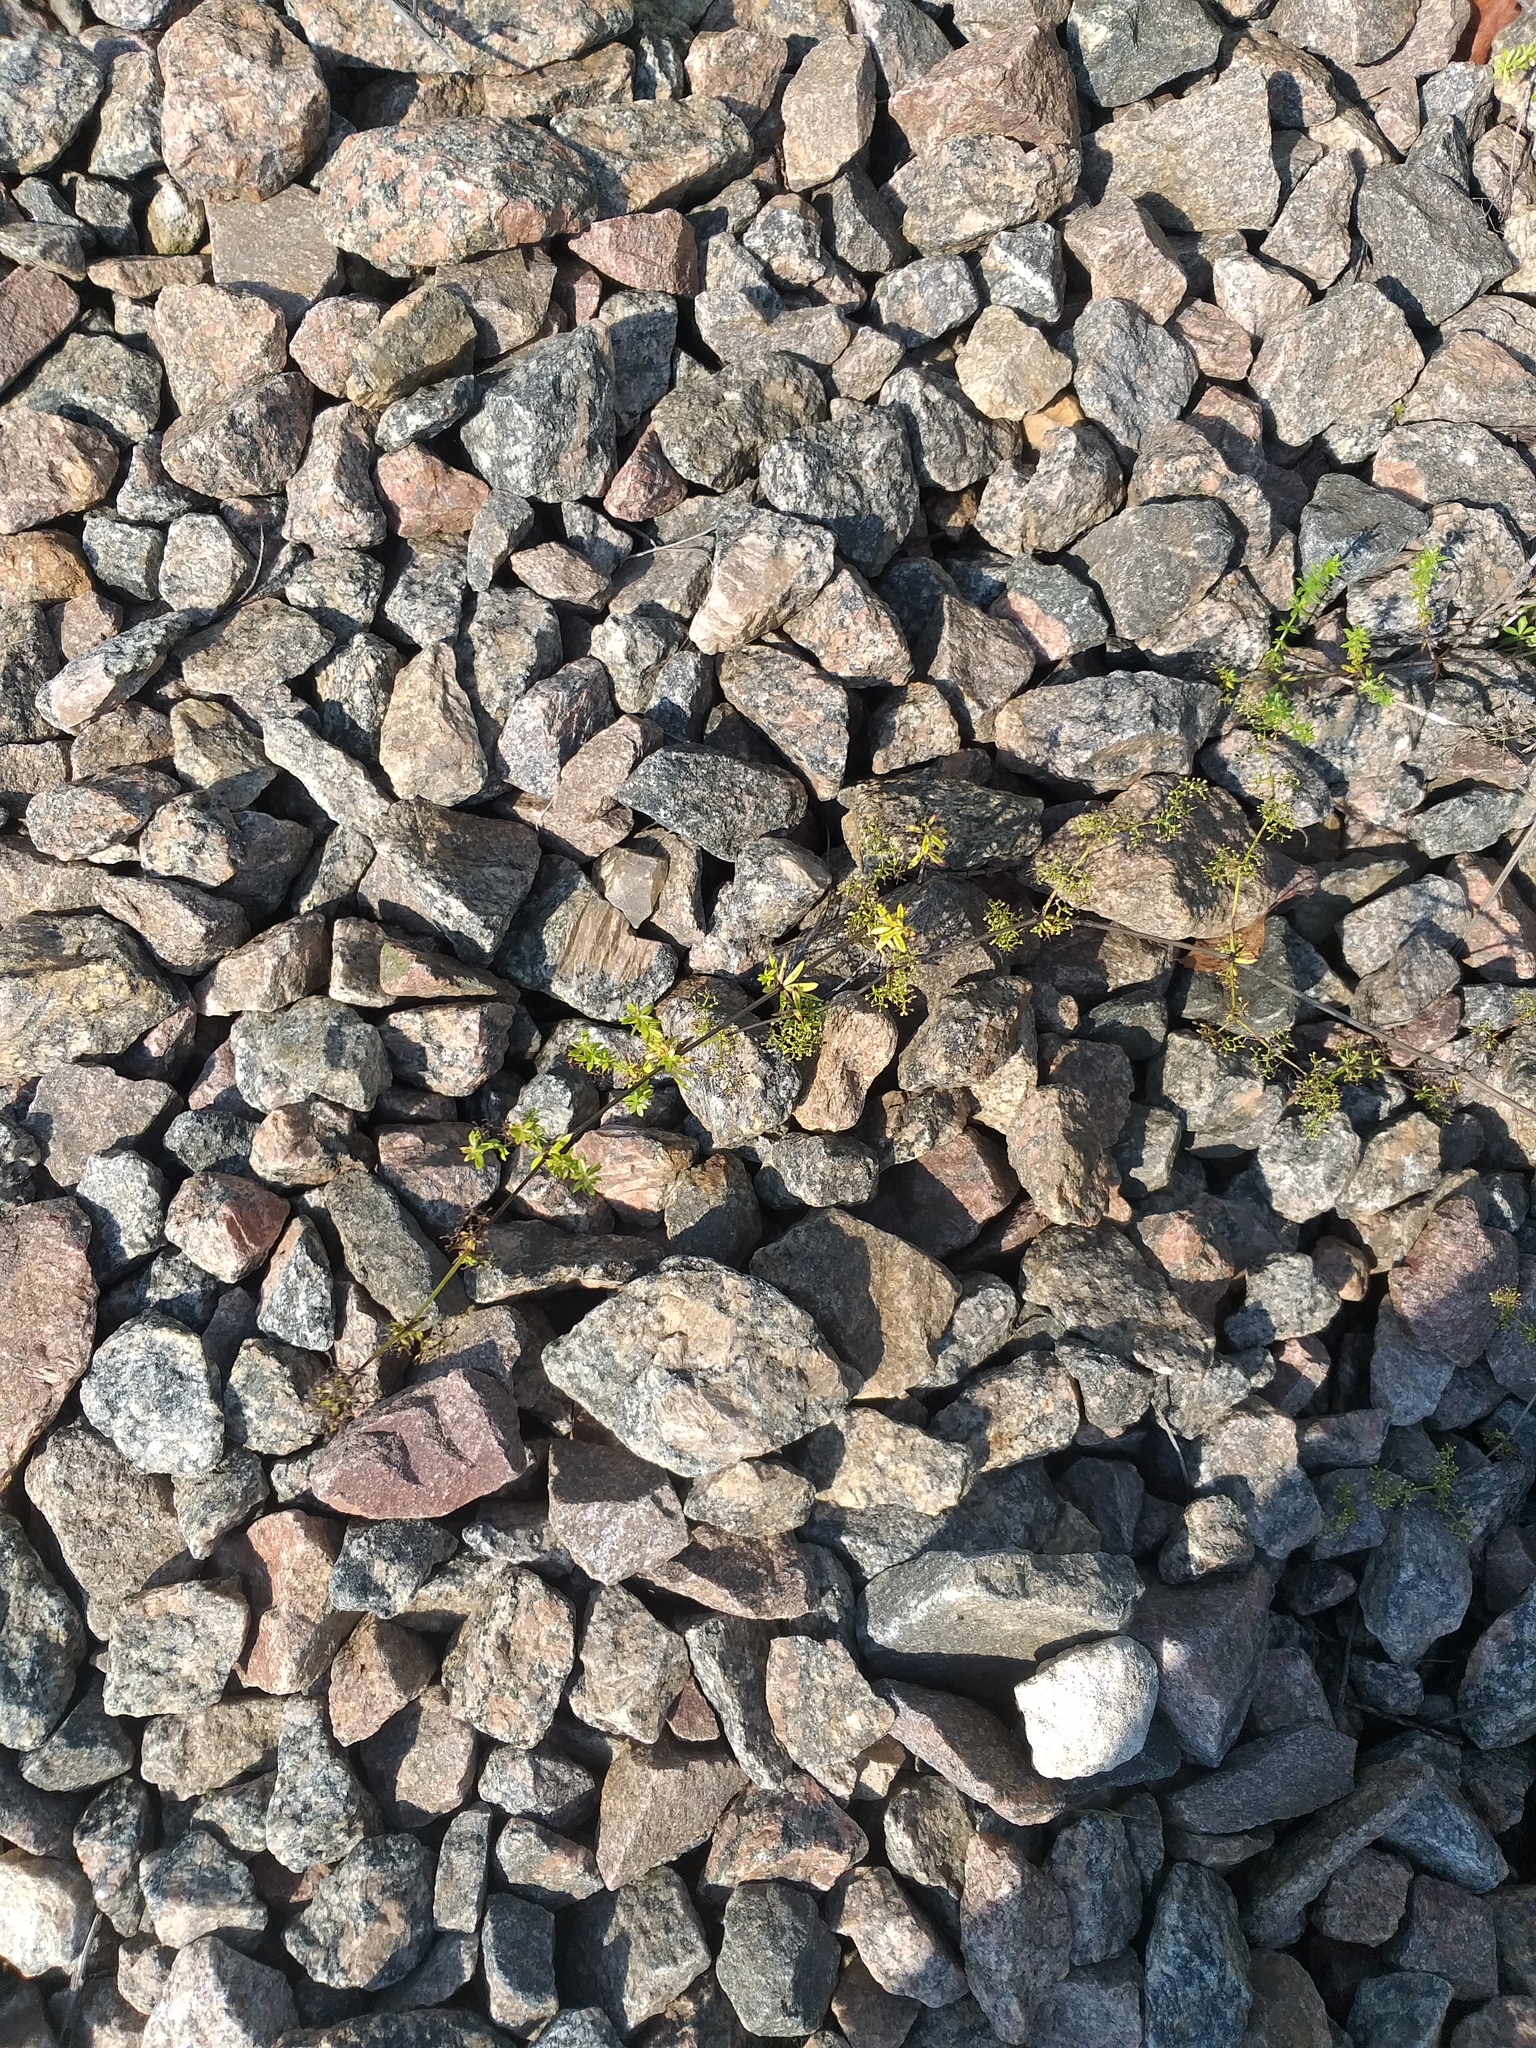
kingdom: Plantae
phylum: Tracheophyta
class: Magnoliopsida
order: Gentianales
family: Rubiaceae
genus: Galium
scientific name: Galium mollugo
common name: Hedge bedstraw
